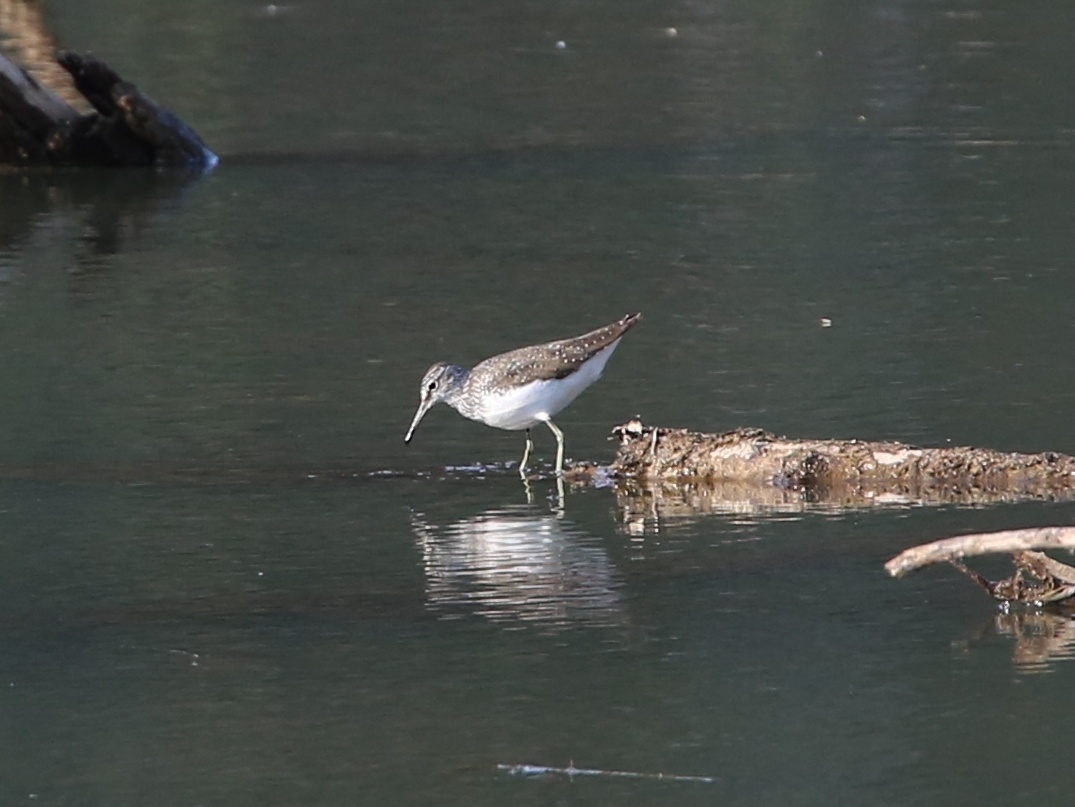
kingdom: Animalia
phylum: Chordata
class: Aves
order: Charadriiformes
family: Scolopacidae
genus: Tringa
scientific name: Tringa ochropus
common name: Green sandpiper
